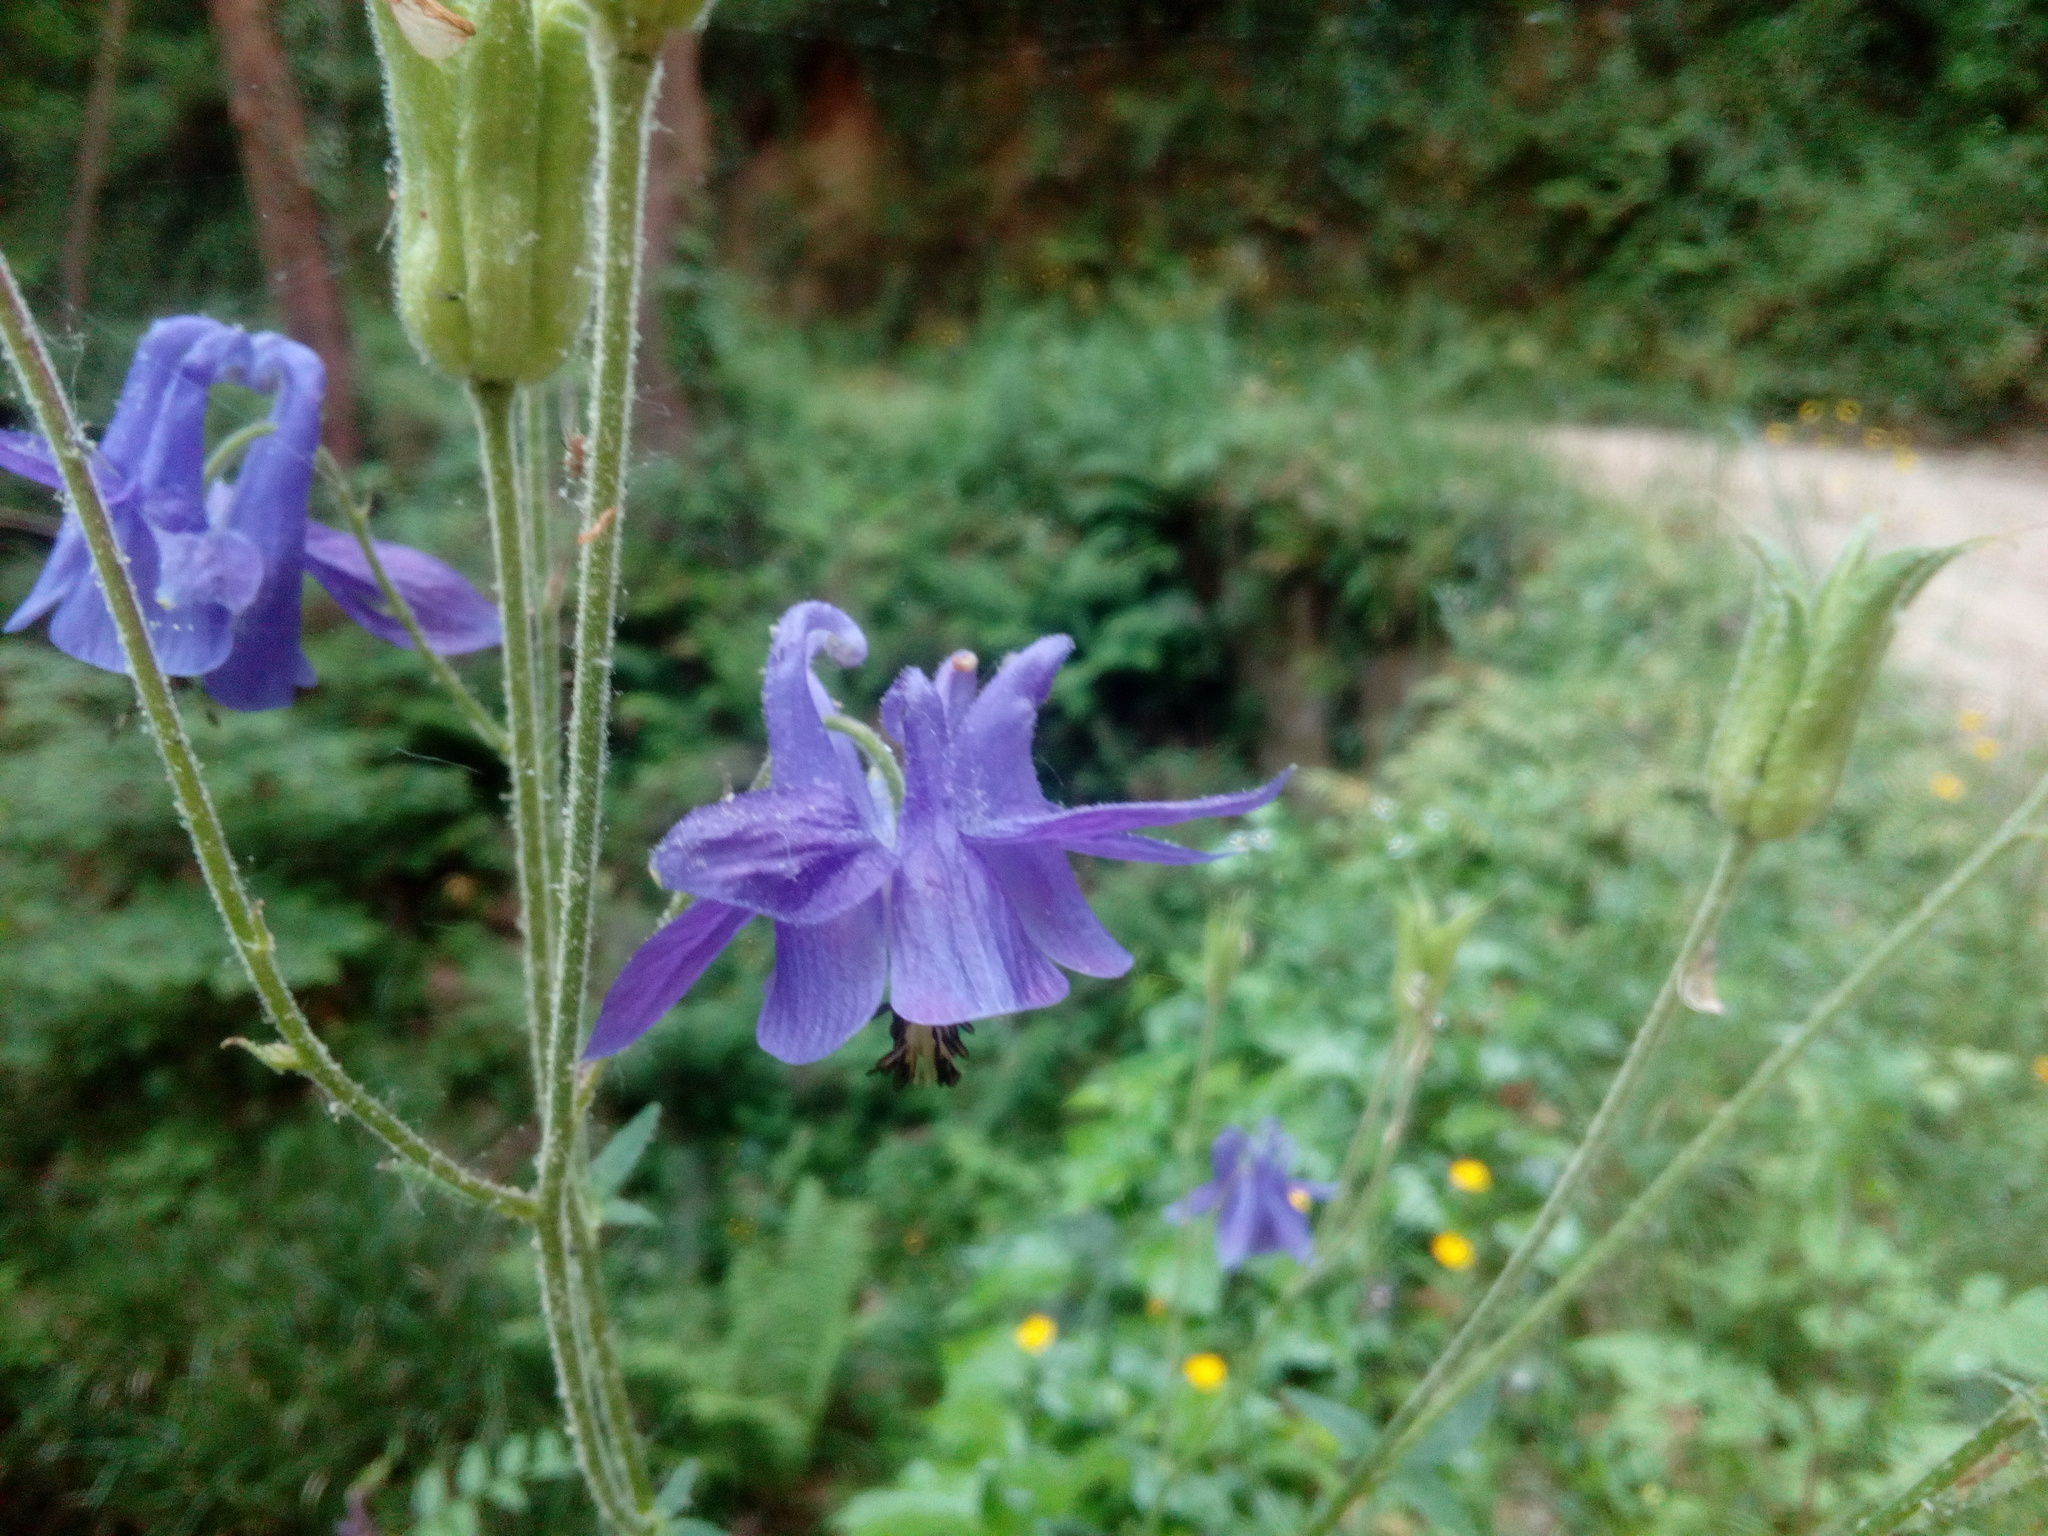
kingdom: Plantae
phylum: Tracheophyta
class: Magnoliopsida
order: Ranunculales
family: Ranunculaceae
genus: Aquilegia
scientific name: Aquilegia vulgaris
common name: Columbine
